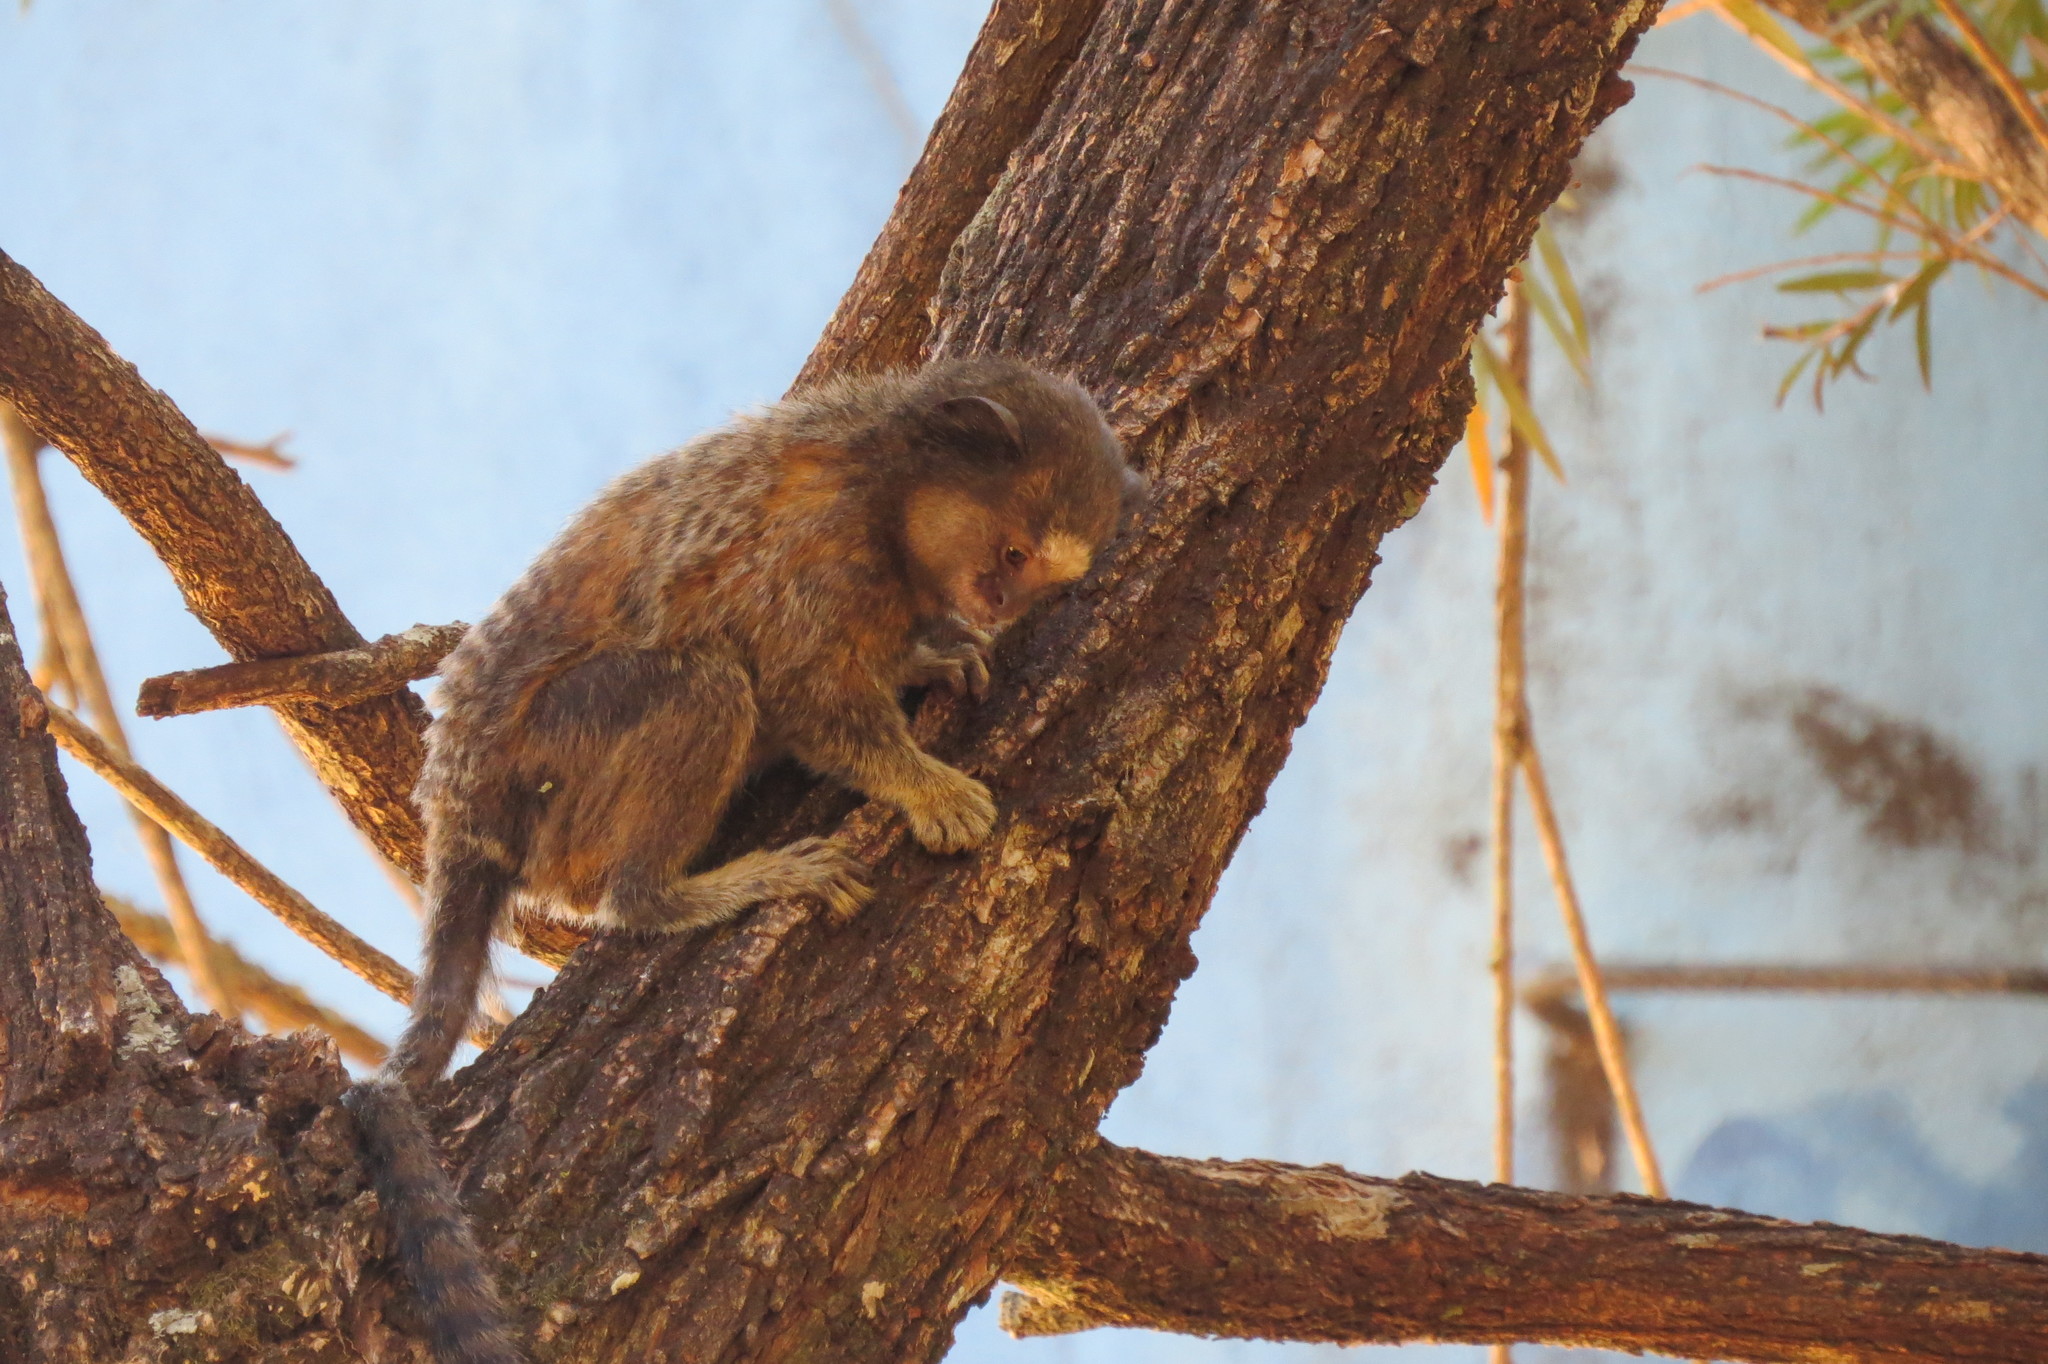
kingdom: Animalia
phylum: Chordata
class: Mammalia
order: Primates
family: Callitrichidae
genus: Callithrix
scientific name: Callithrix penicillata
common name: Black-tufted marmoset
